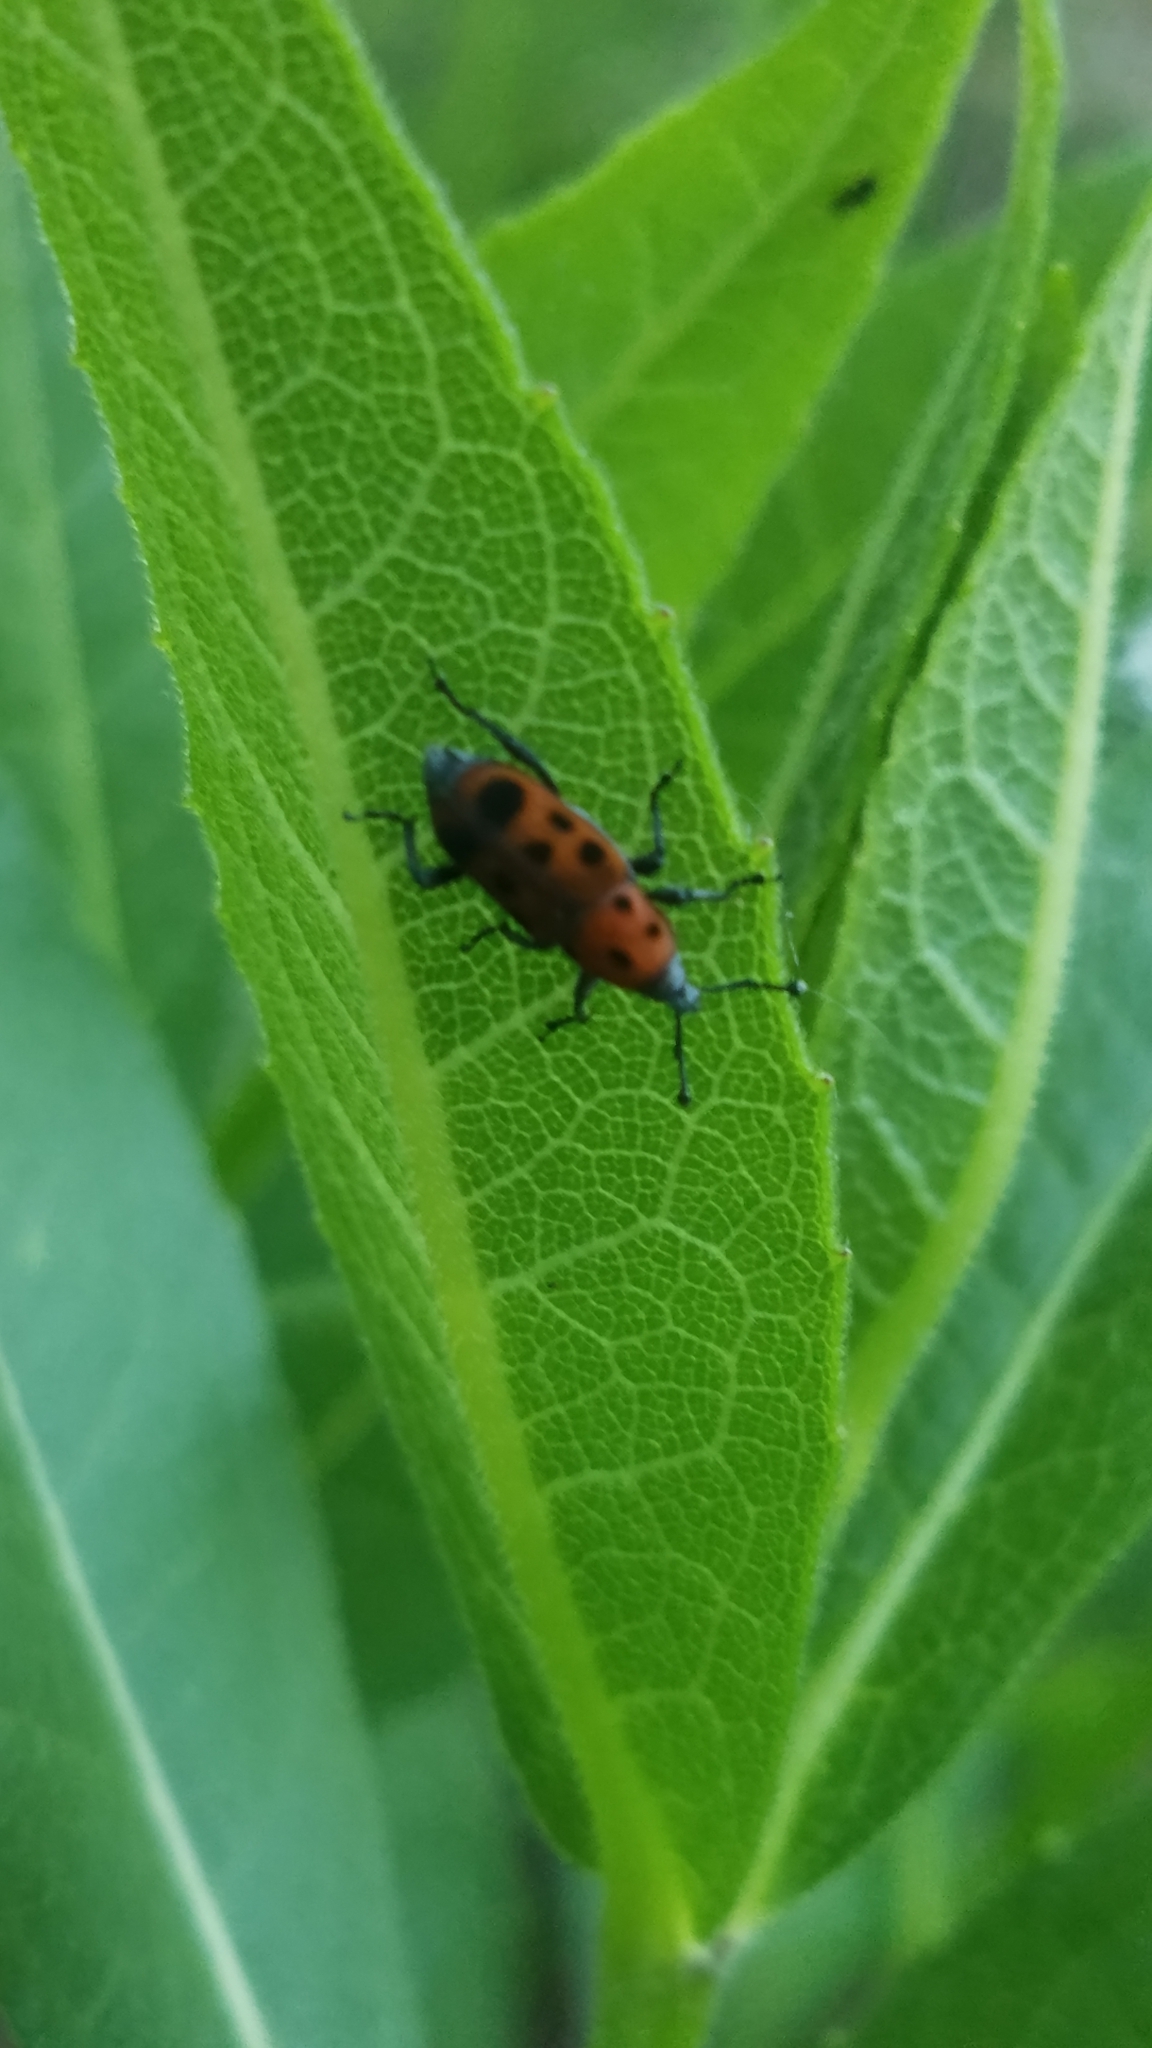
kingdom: Animalia
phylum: Arthropoda
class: Insecta
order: Coleoptera
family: Dryophthoridae
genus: Rhodobaenus
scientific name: Rhodobaenus tredecimpunctatus
